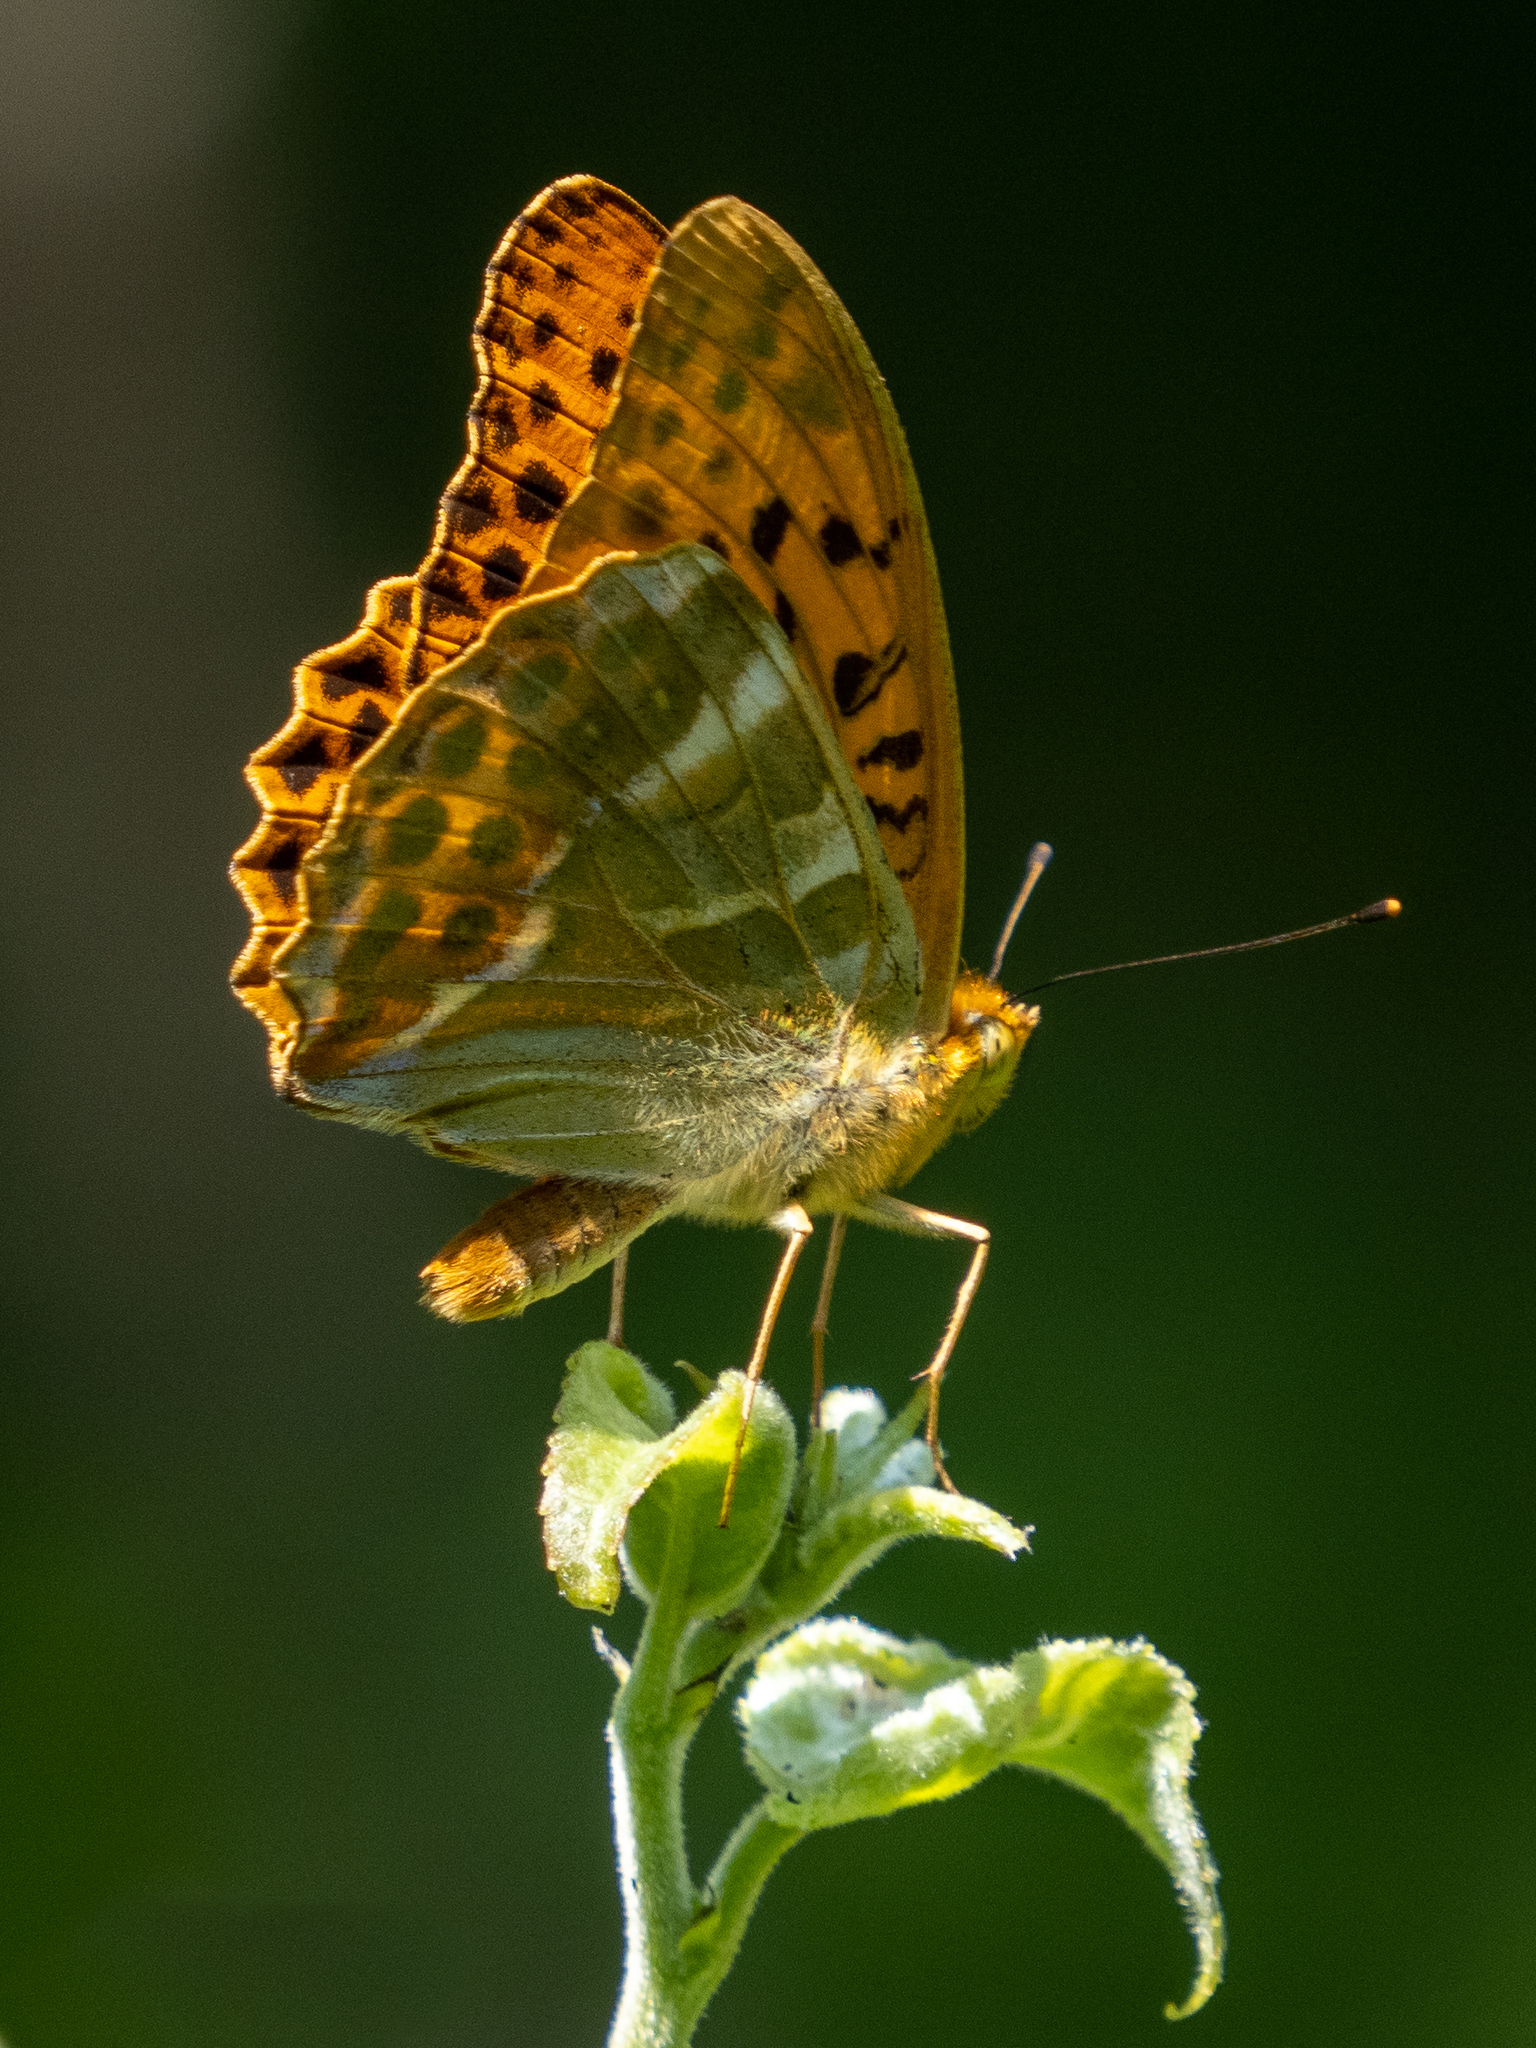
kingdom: Animalia
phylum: Arthropoda
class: Insecta
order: Lepidoptera
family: Nymphalidae
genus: Argynnis
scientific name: Argynnis paphia
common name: Silver-washed fritillary
